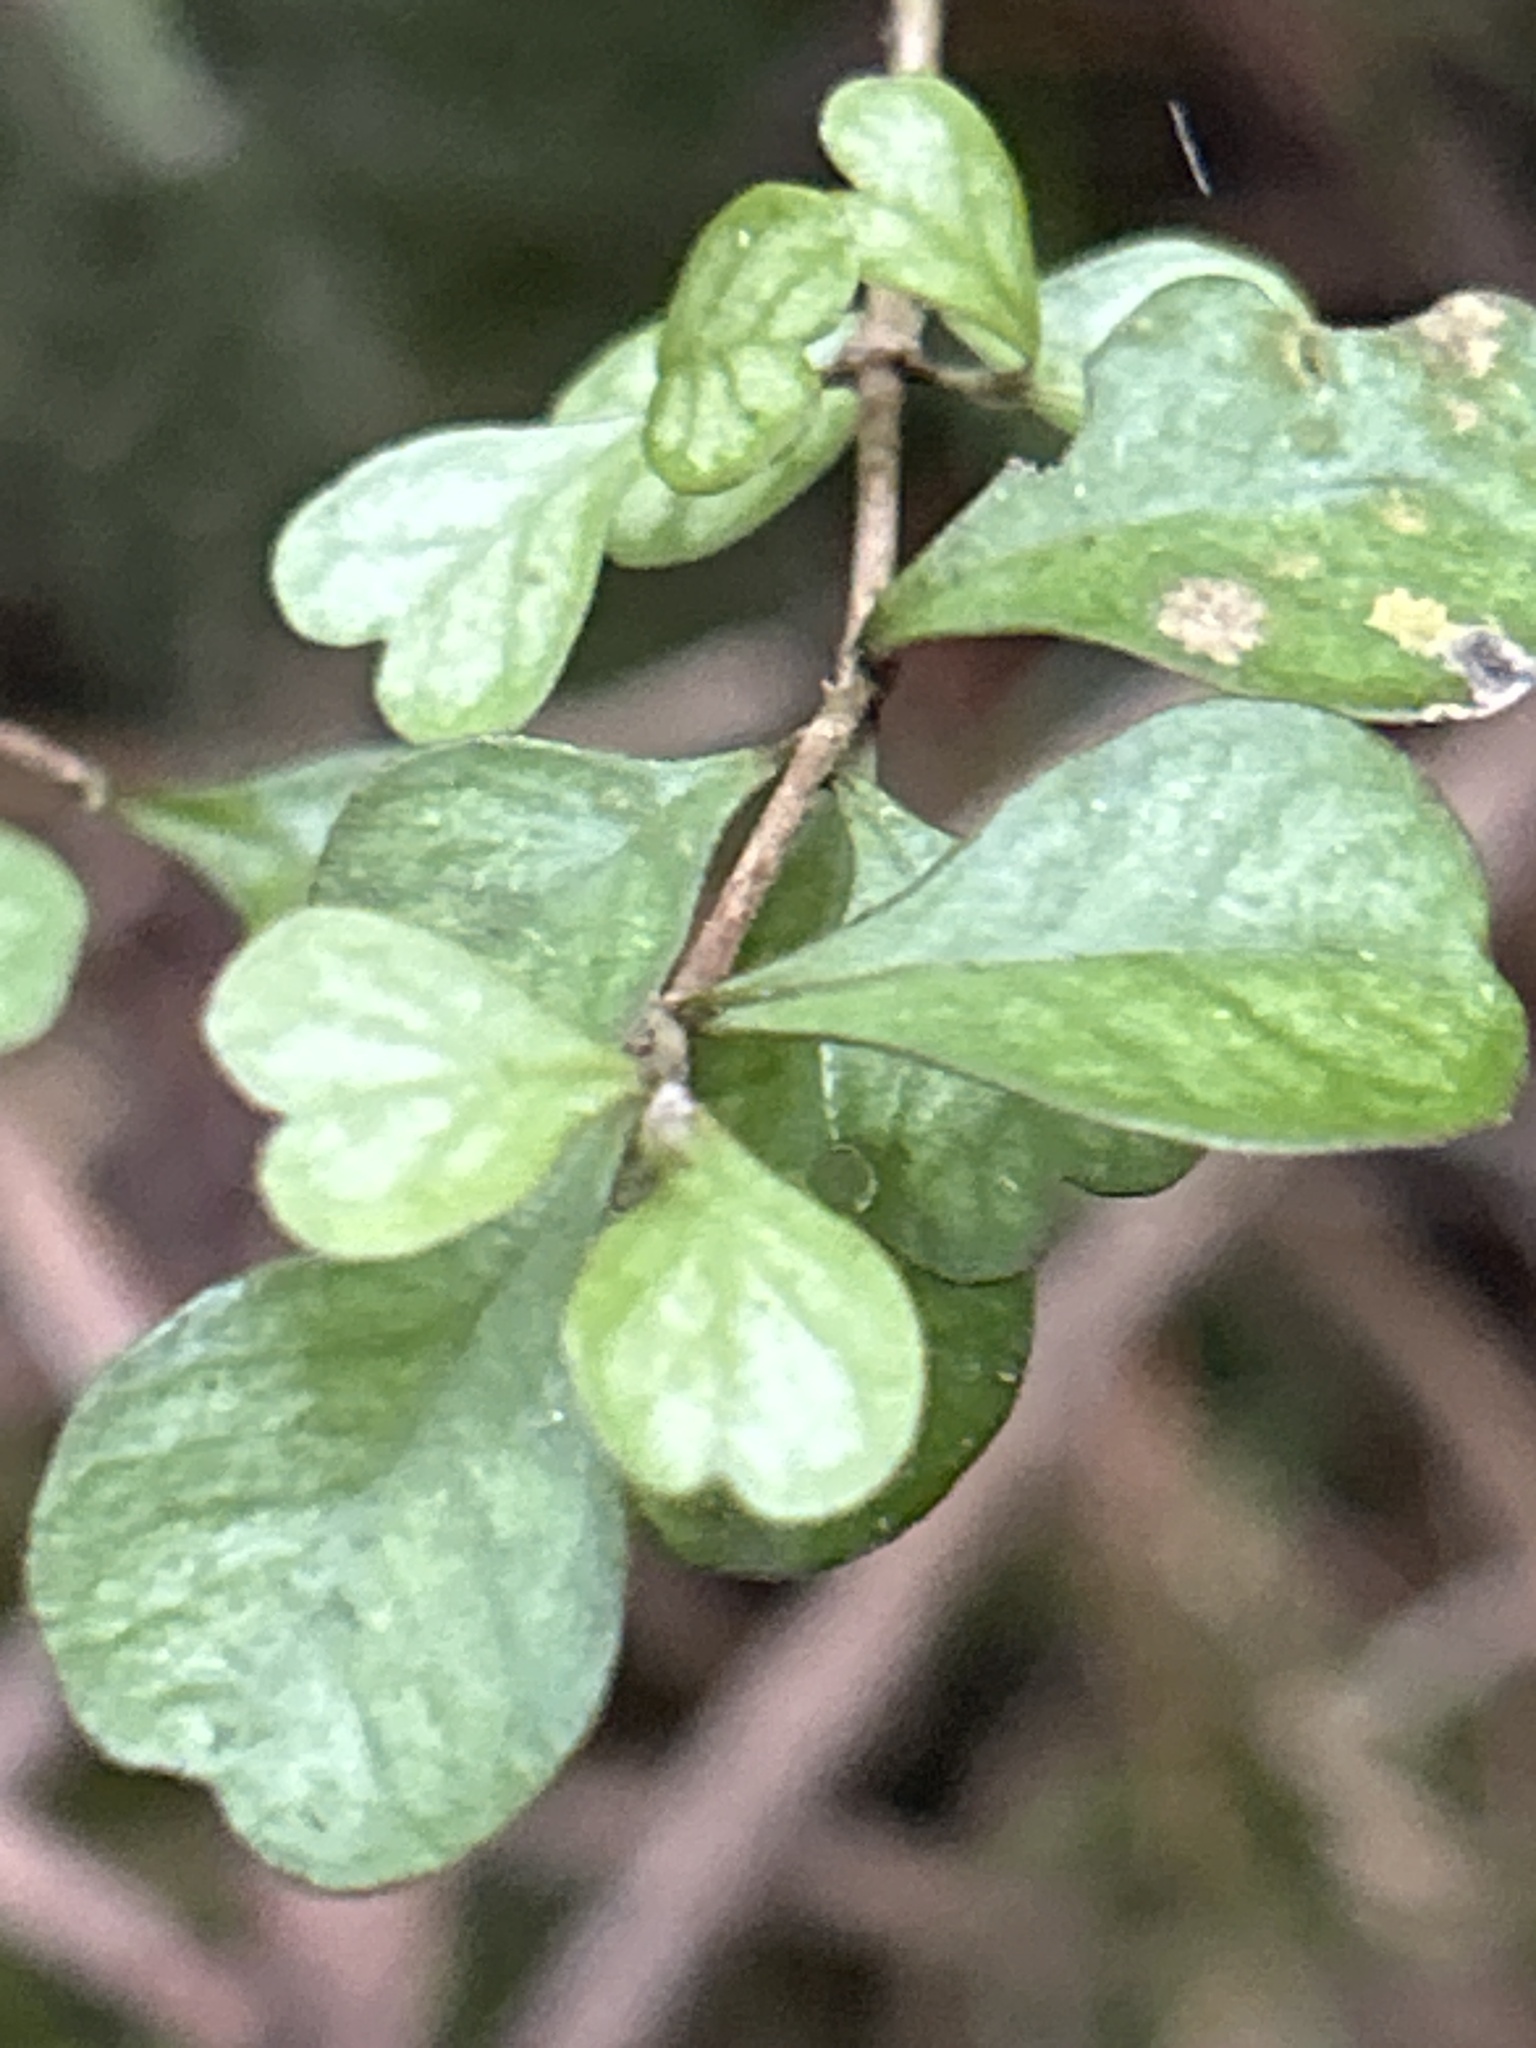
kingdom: Plantae
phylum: Tracheophyta
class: Magnoliopsida
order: Myrtales
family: Myrtaceae
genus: Lophomyrtus
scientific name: Lophomyrtus obcordata
